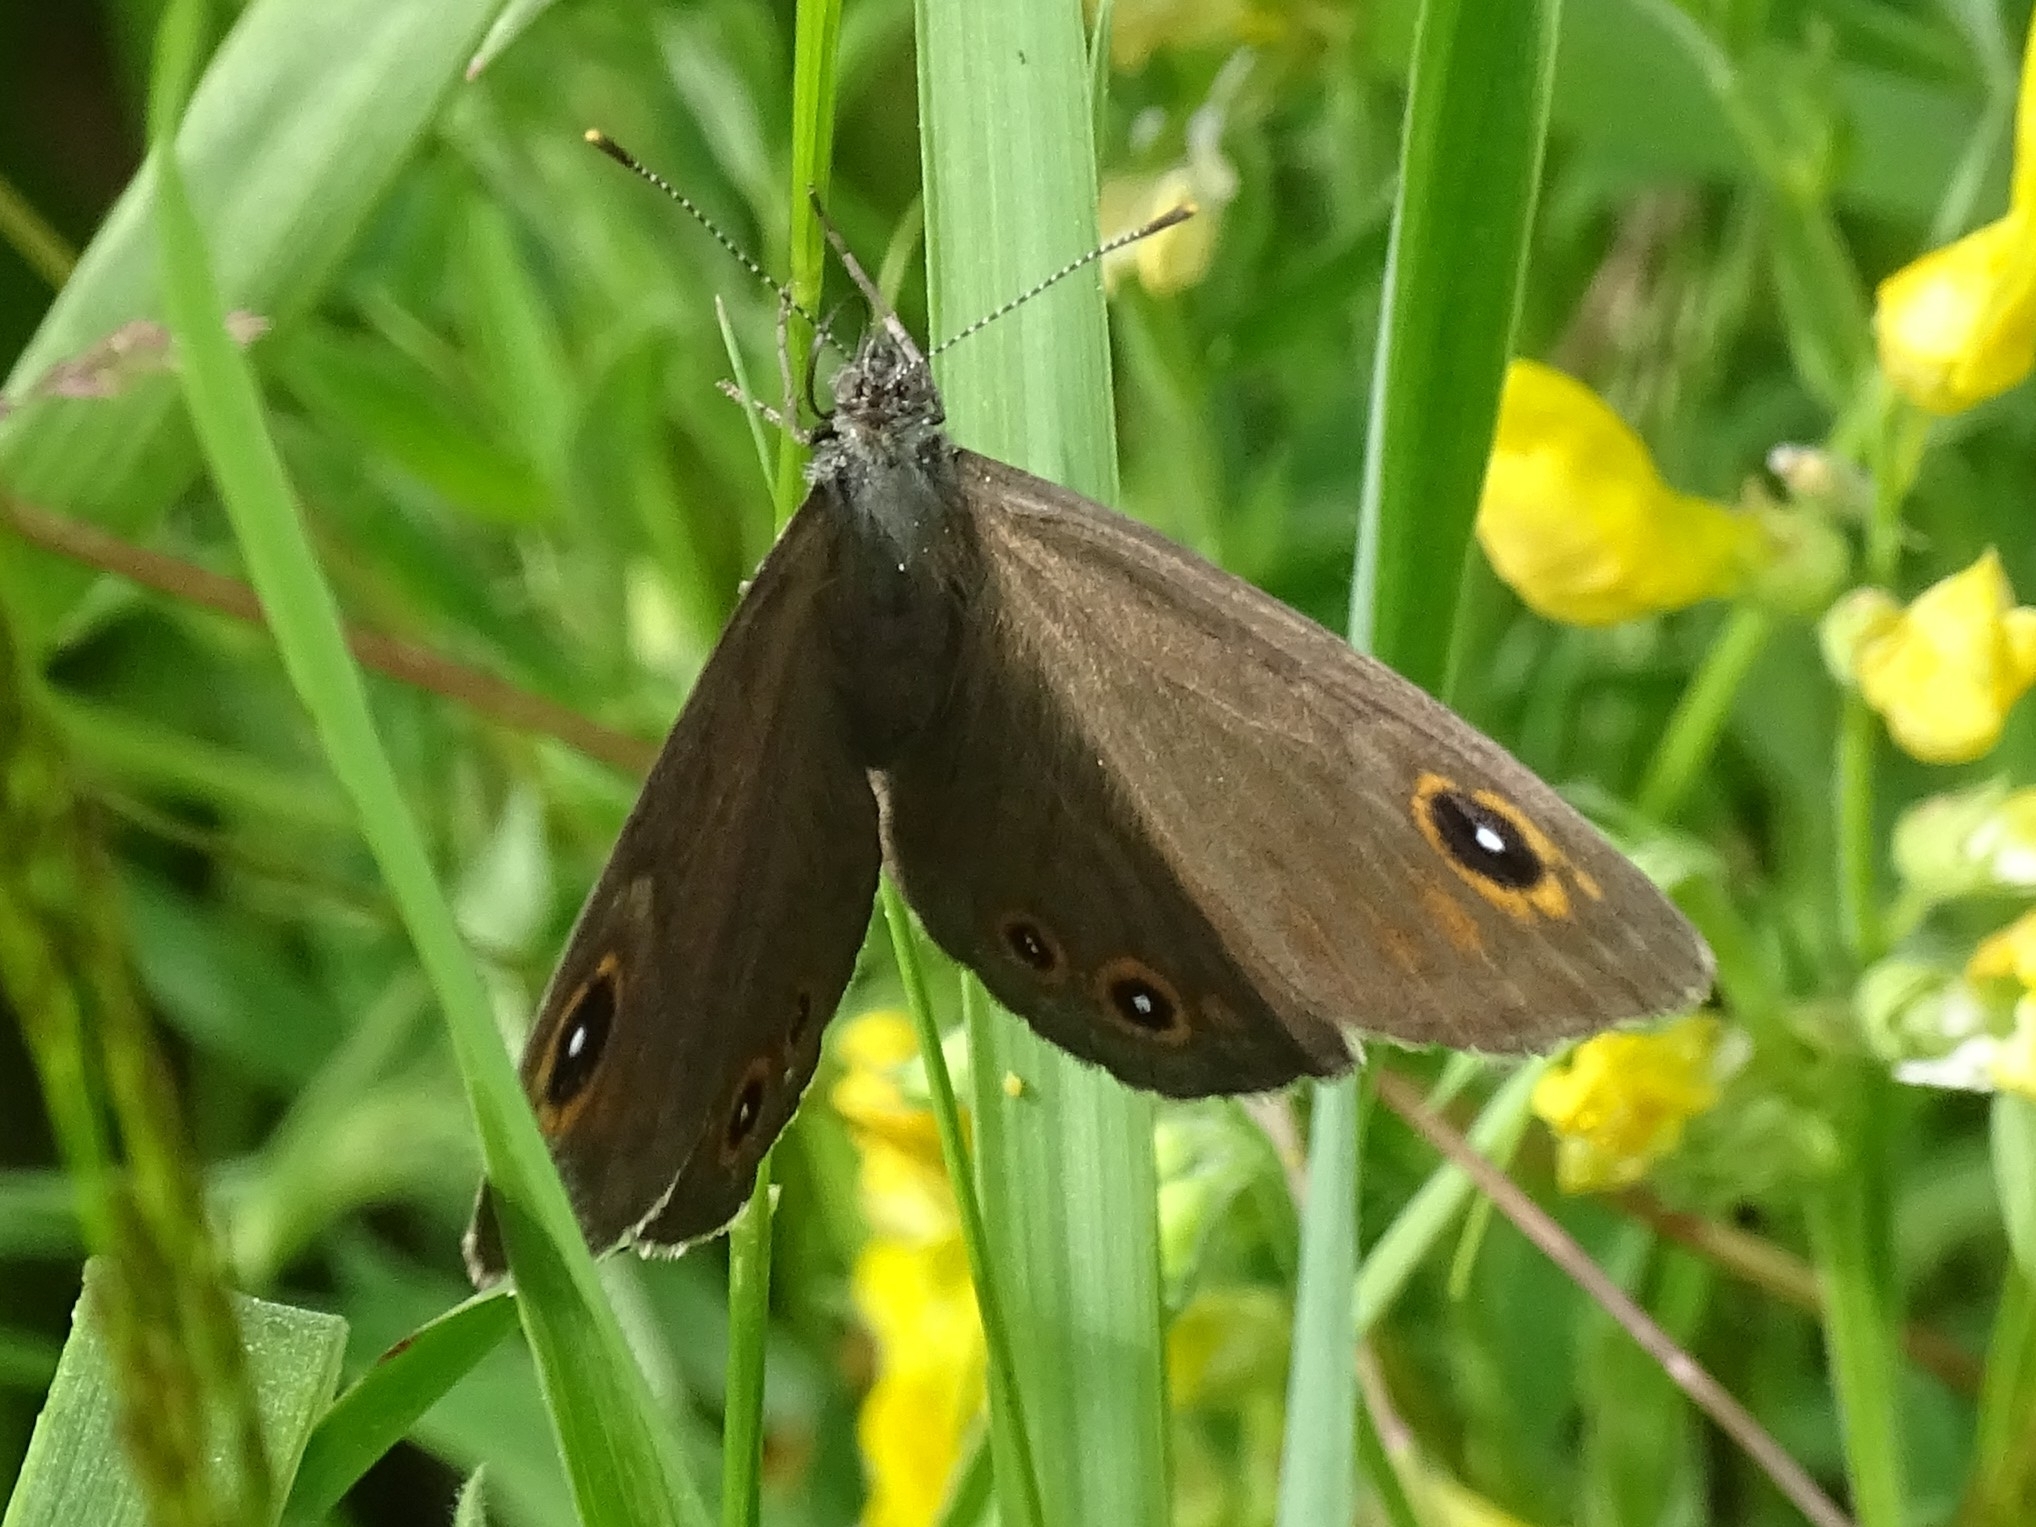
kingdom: Animalia
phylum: Arthropoda
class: Insecta
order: Lepidoptera
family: Nymphalidae
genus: Pararge
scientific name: Pararge Lasiommata maera
